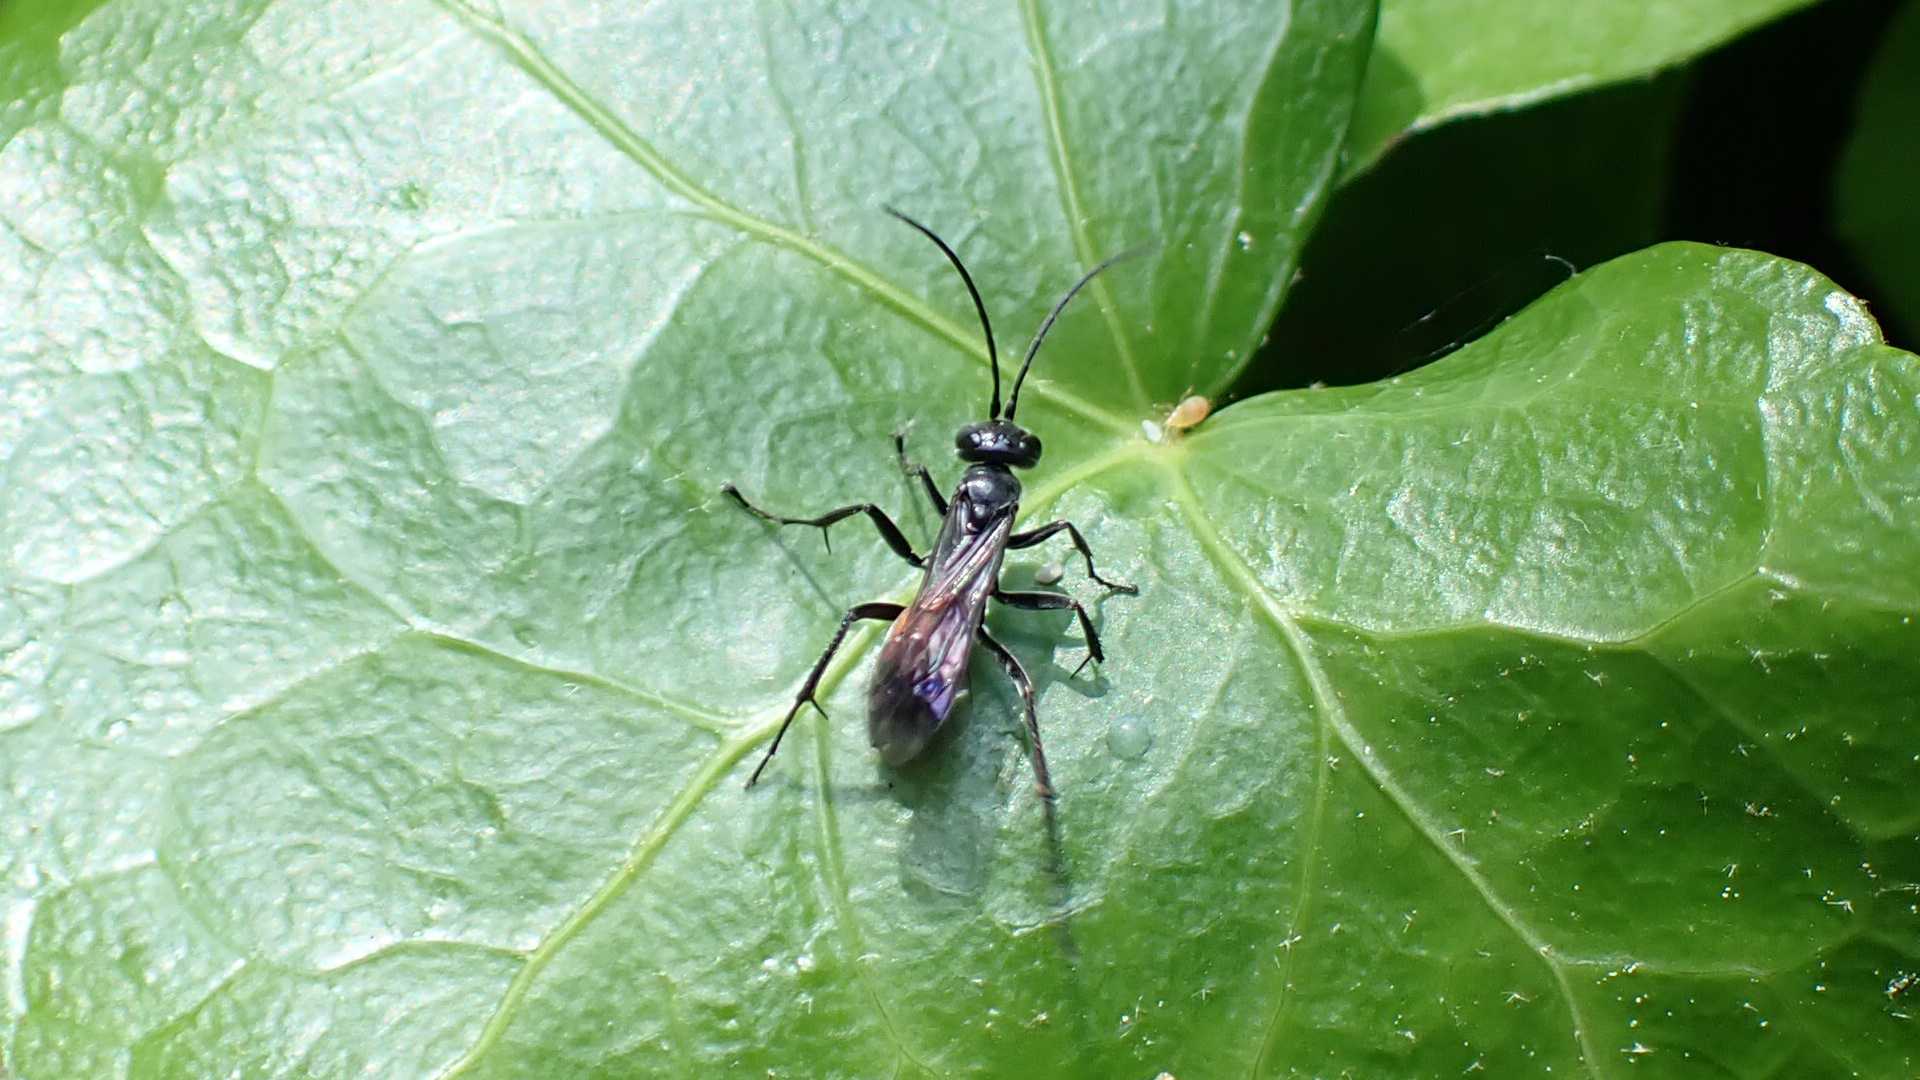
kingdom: Animalia
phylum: Arthropoda
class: Insecta
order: Hymenoptera
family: Pompilidae
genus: Caliadurgus
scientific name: Caliadurgus fasciatellus
